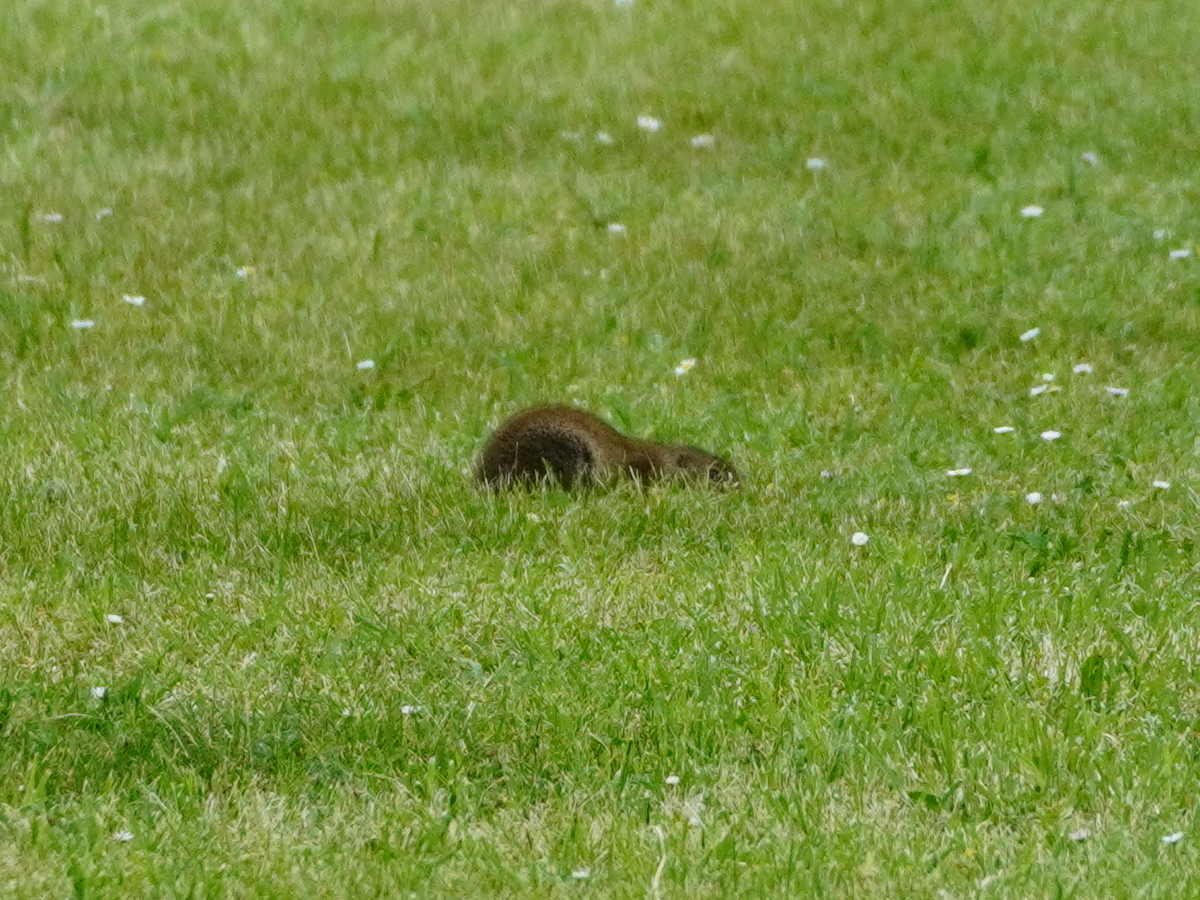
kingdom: Animalia
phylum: Chordata
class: Mammalia
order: Rodentia
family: Sciuridae
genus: Spermophilus
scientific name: Spermophilus citellus
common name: European ground squirrel
